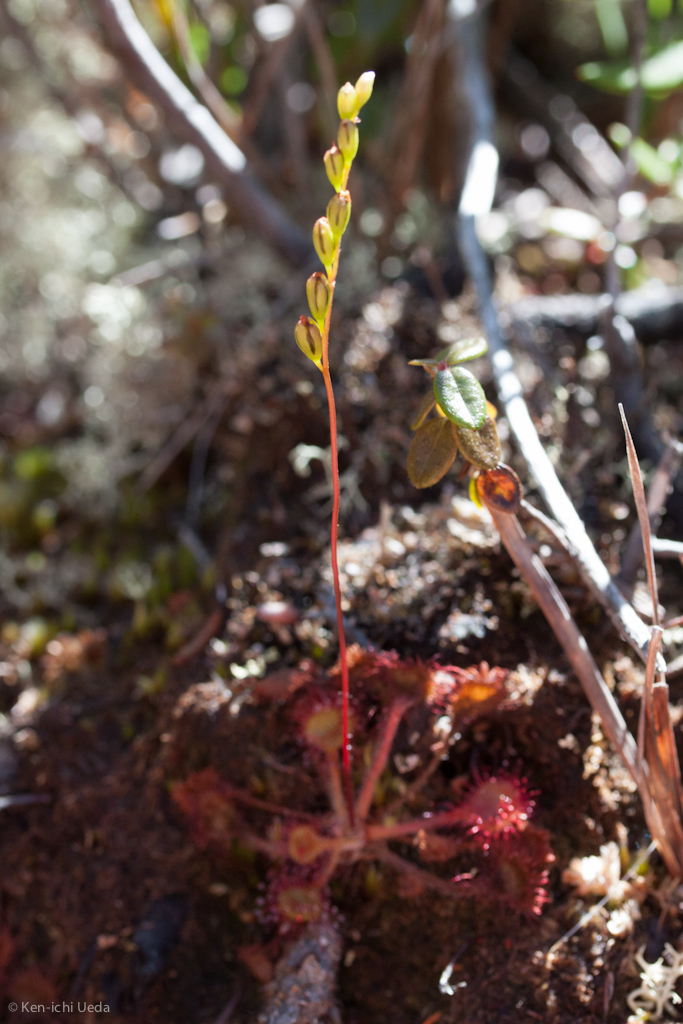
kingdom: Plantae
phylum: Tracheophyta
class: Magnoliopsida
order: Caryophyllales
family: Droseraceae
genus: Drosera
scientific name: Drosera rotundifolia
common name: Round-leaved sundew
